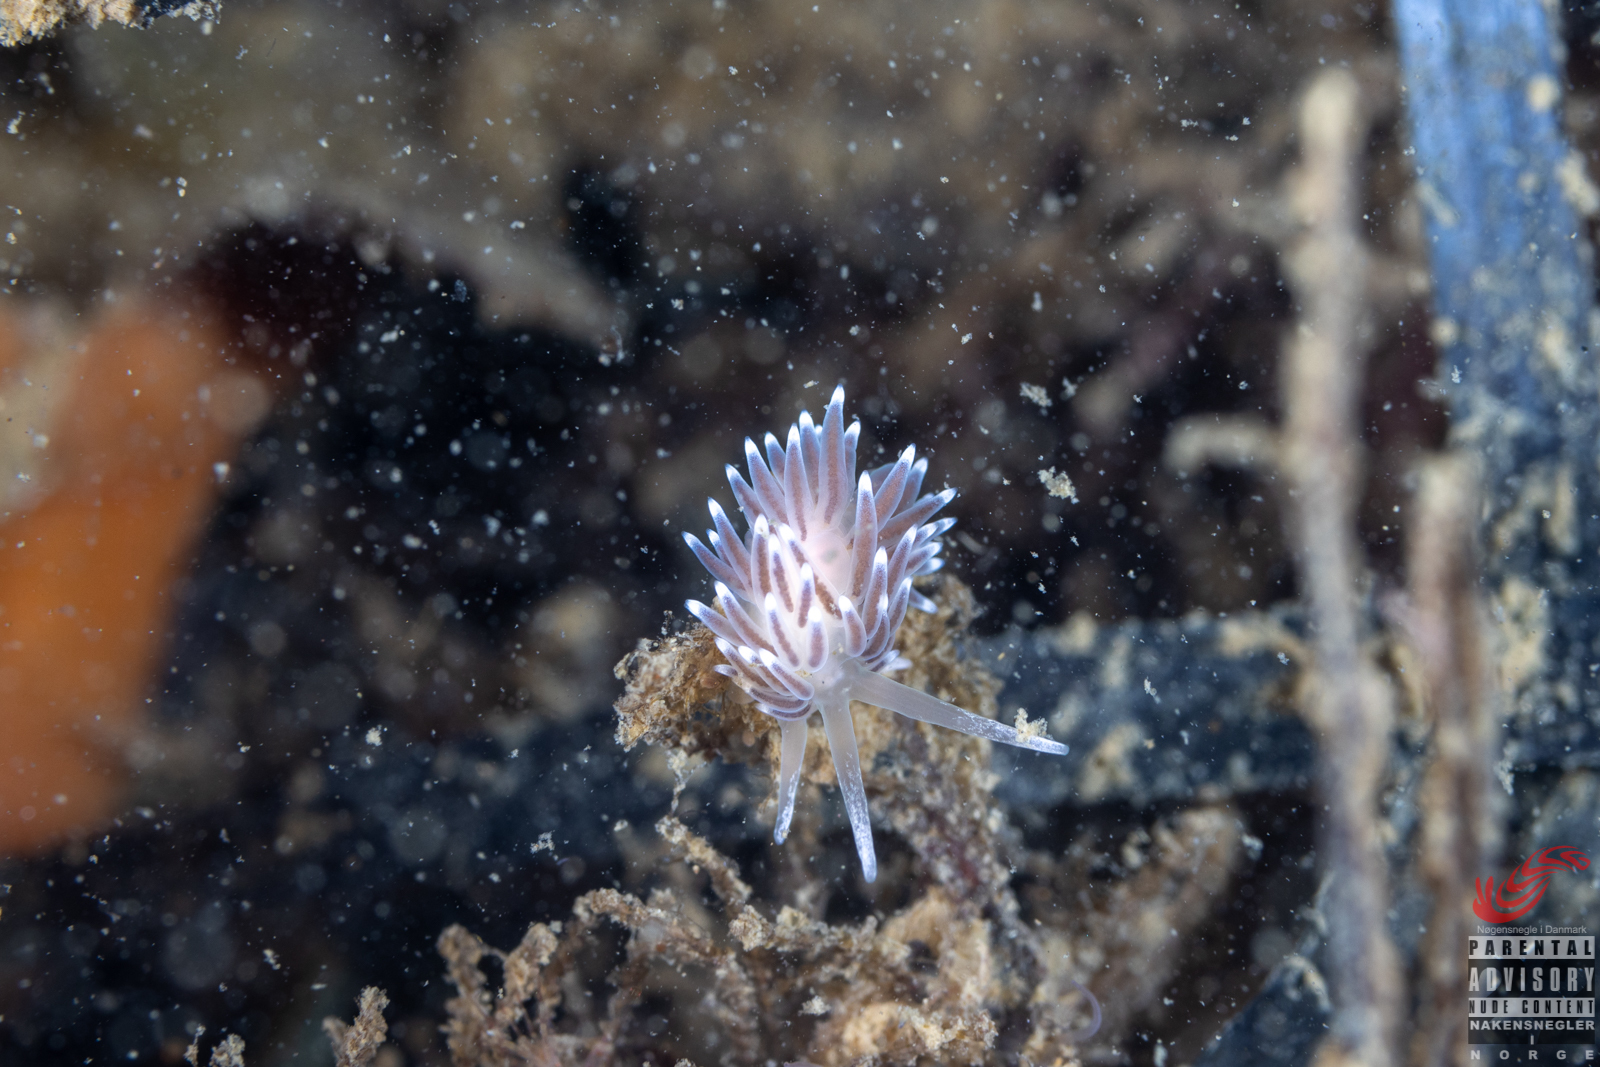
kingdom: Animalia
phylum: Mollusca
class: Gastropoda
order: Nudibranchia
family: Cuthonellidae
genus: Cuthonella
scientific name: Cuthonella concinna
